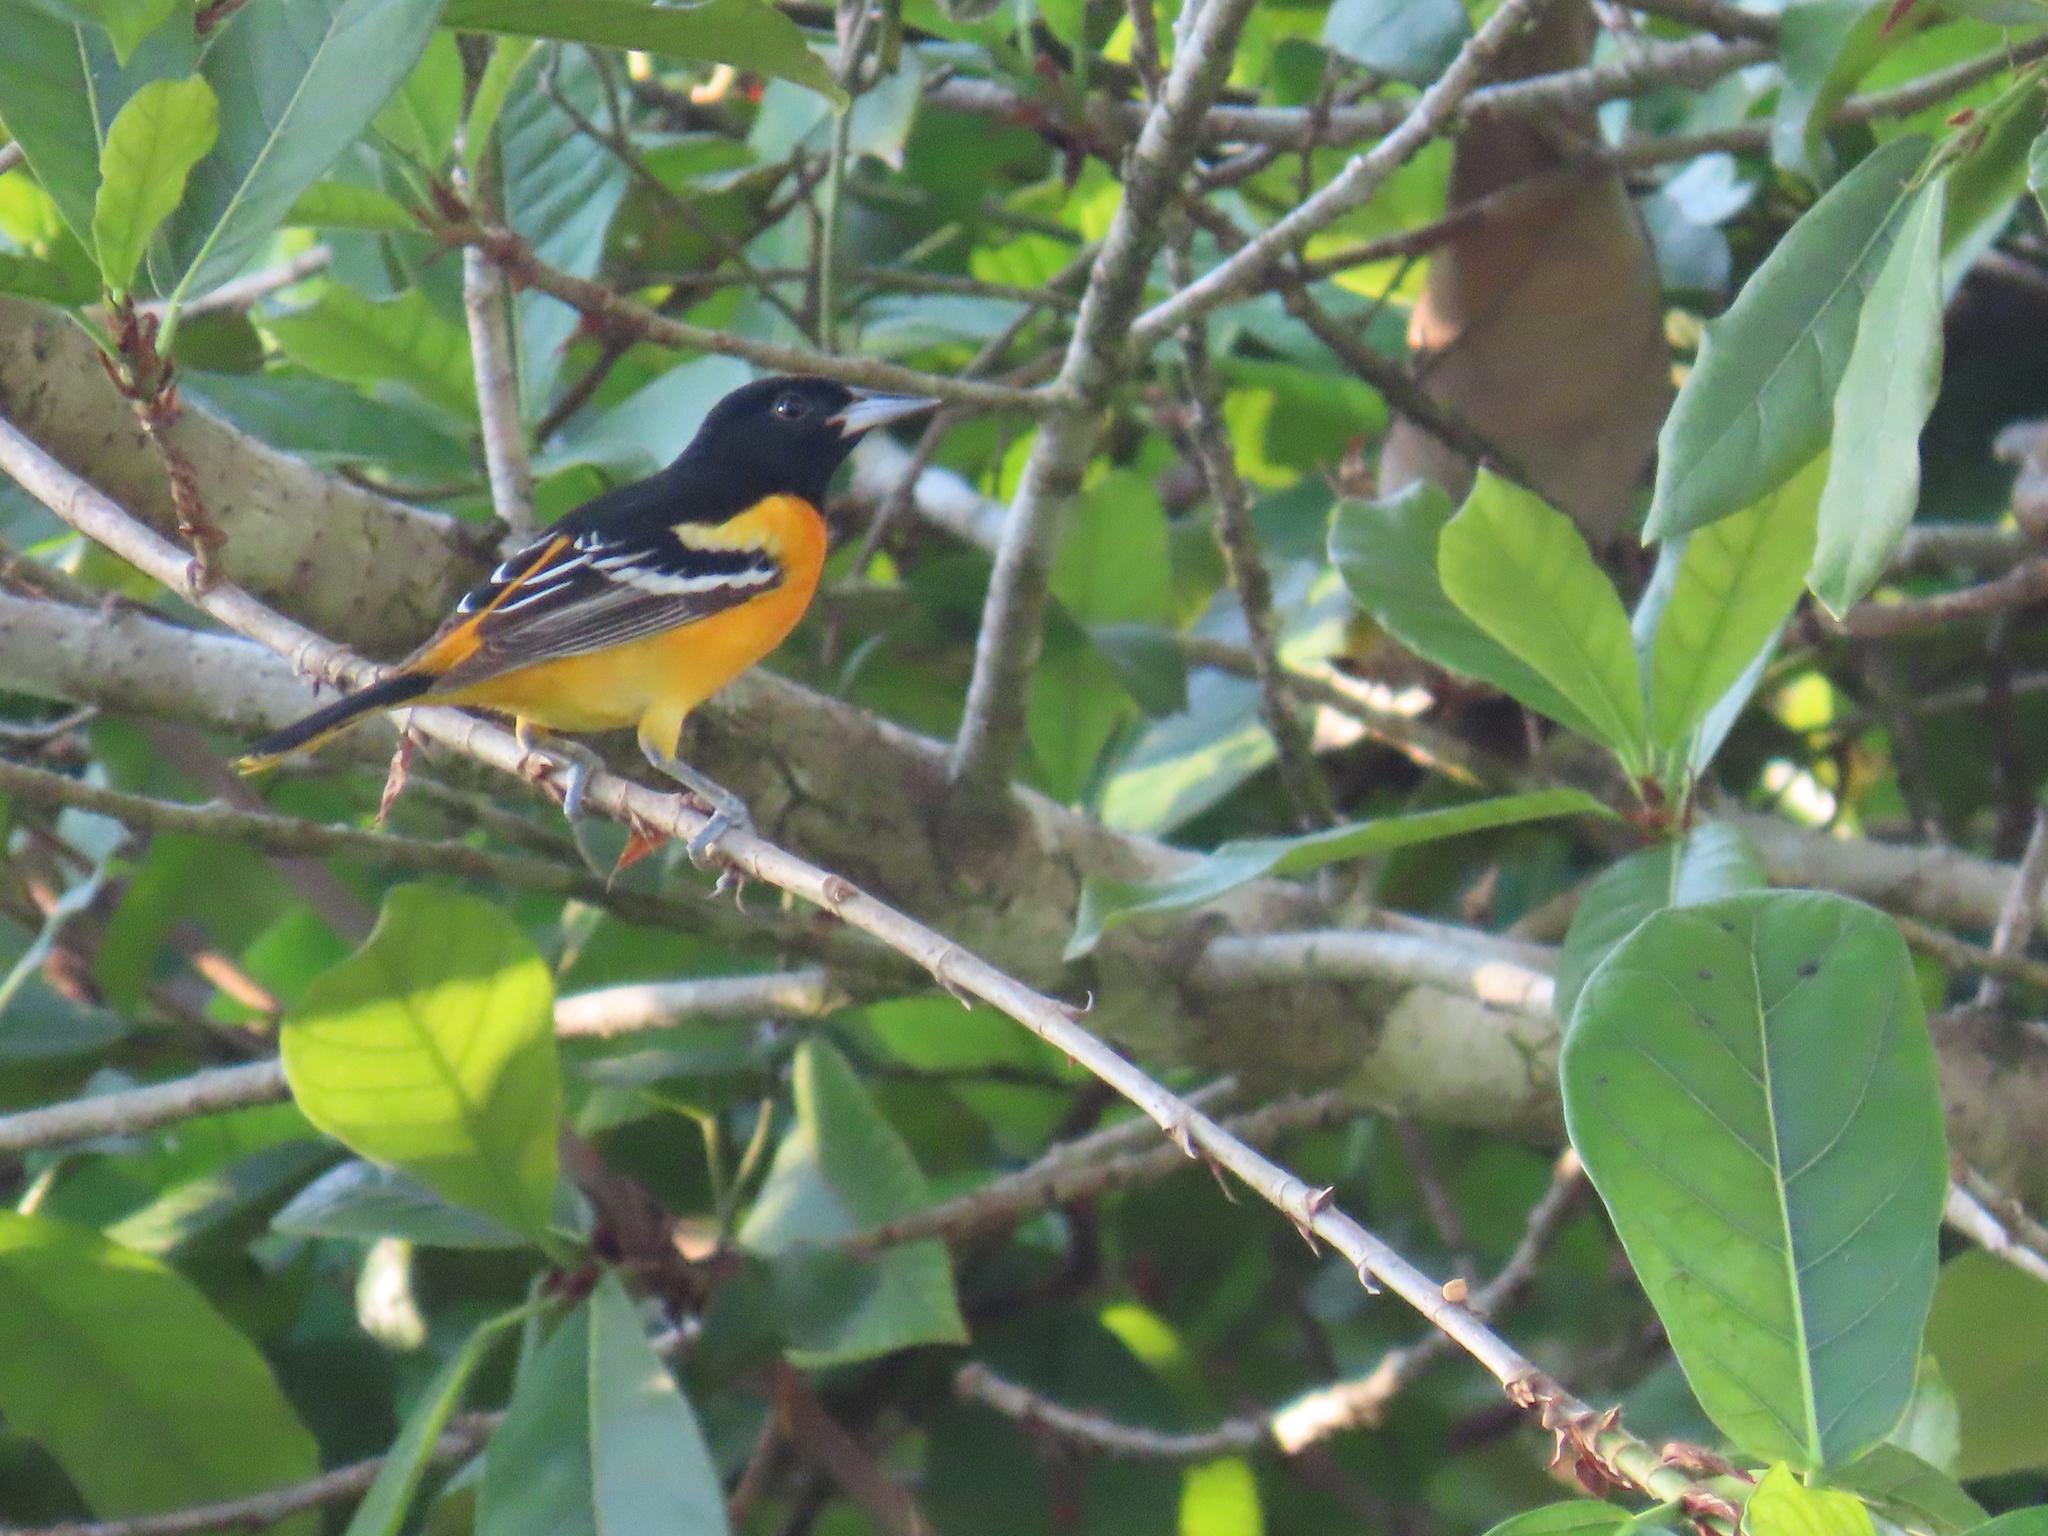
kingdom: Animalia
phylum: Chordata
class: Aves
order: Passeriformes
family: Icteridae
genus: Icterus
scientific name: Icterus galbula
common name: Baltimore oriole
